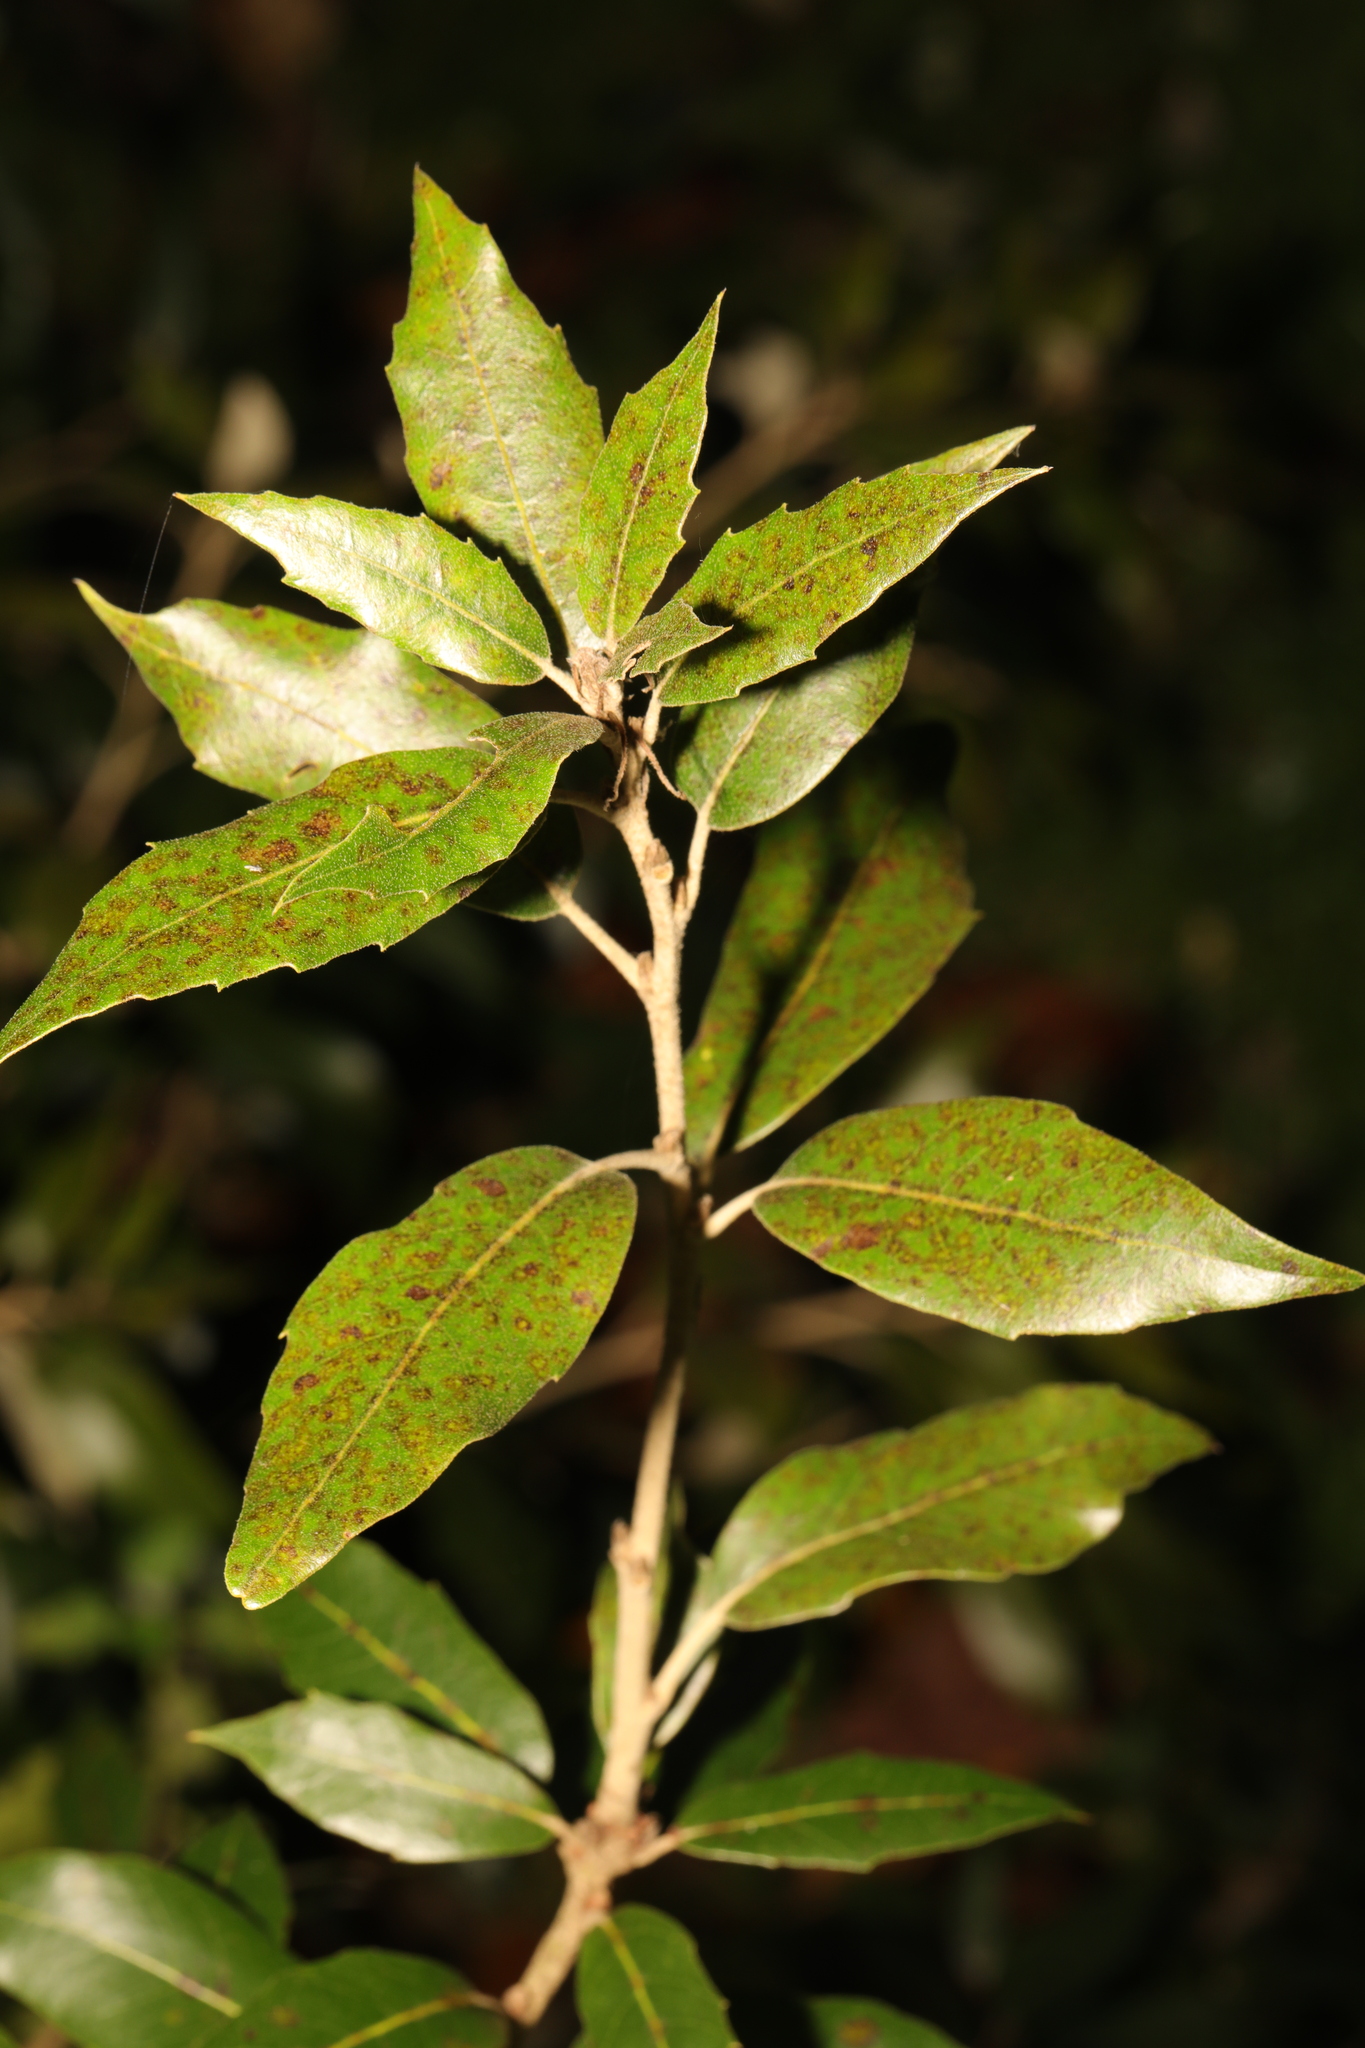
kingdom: Plantae
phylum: Tracheophyta
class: Magnoliopsida
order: Fagales
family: Fagaceae
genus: Quercus
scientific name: Quercus ilex
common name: Evergreen oak
